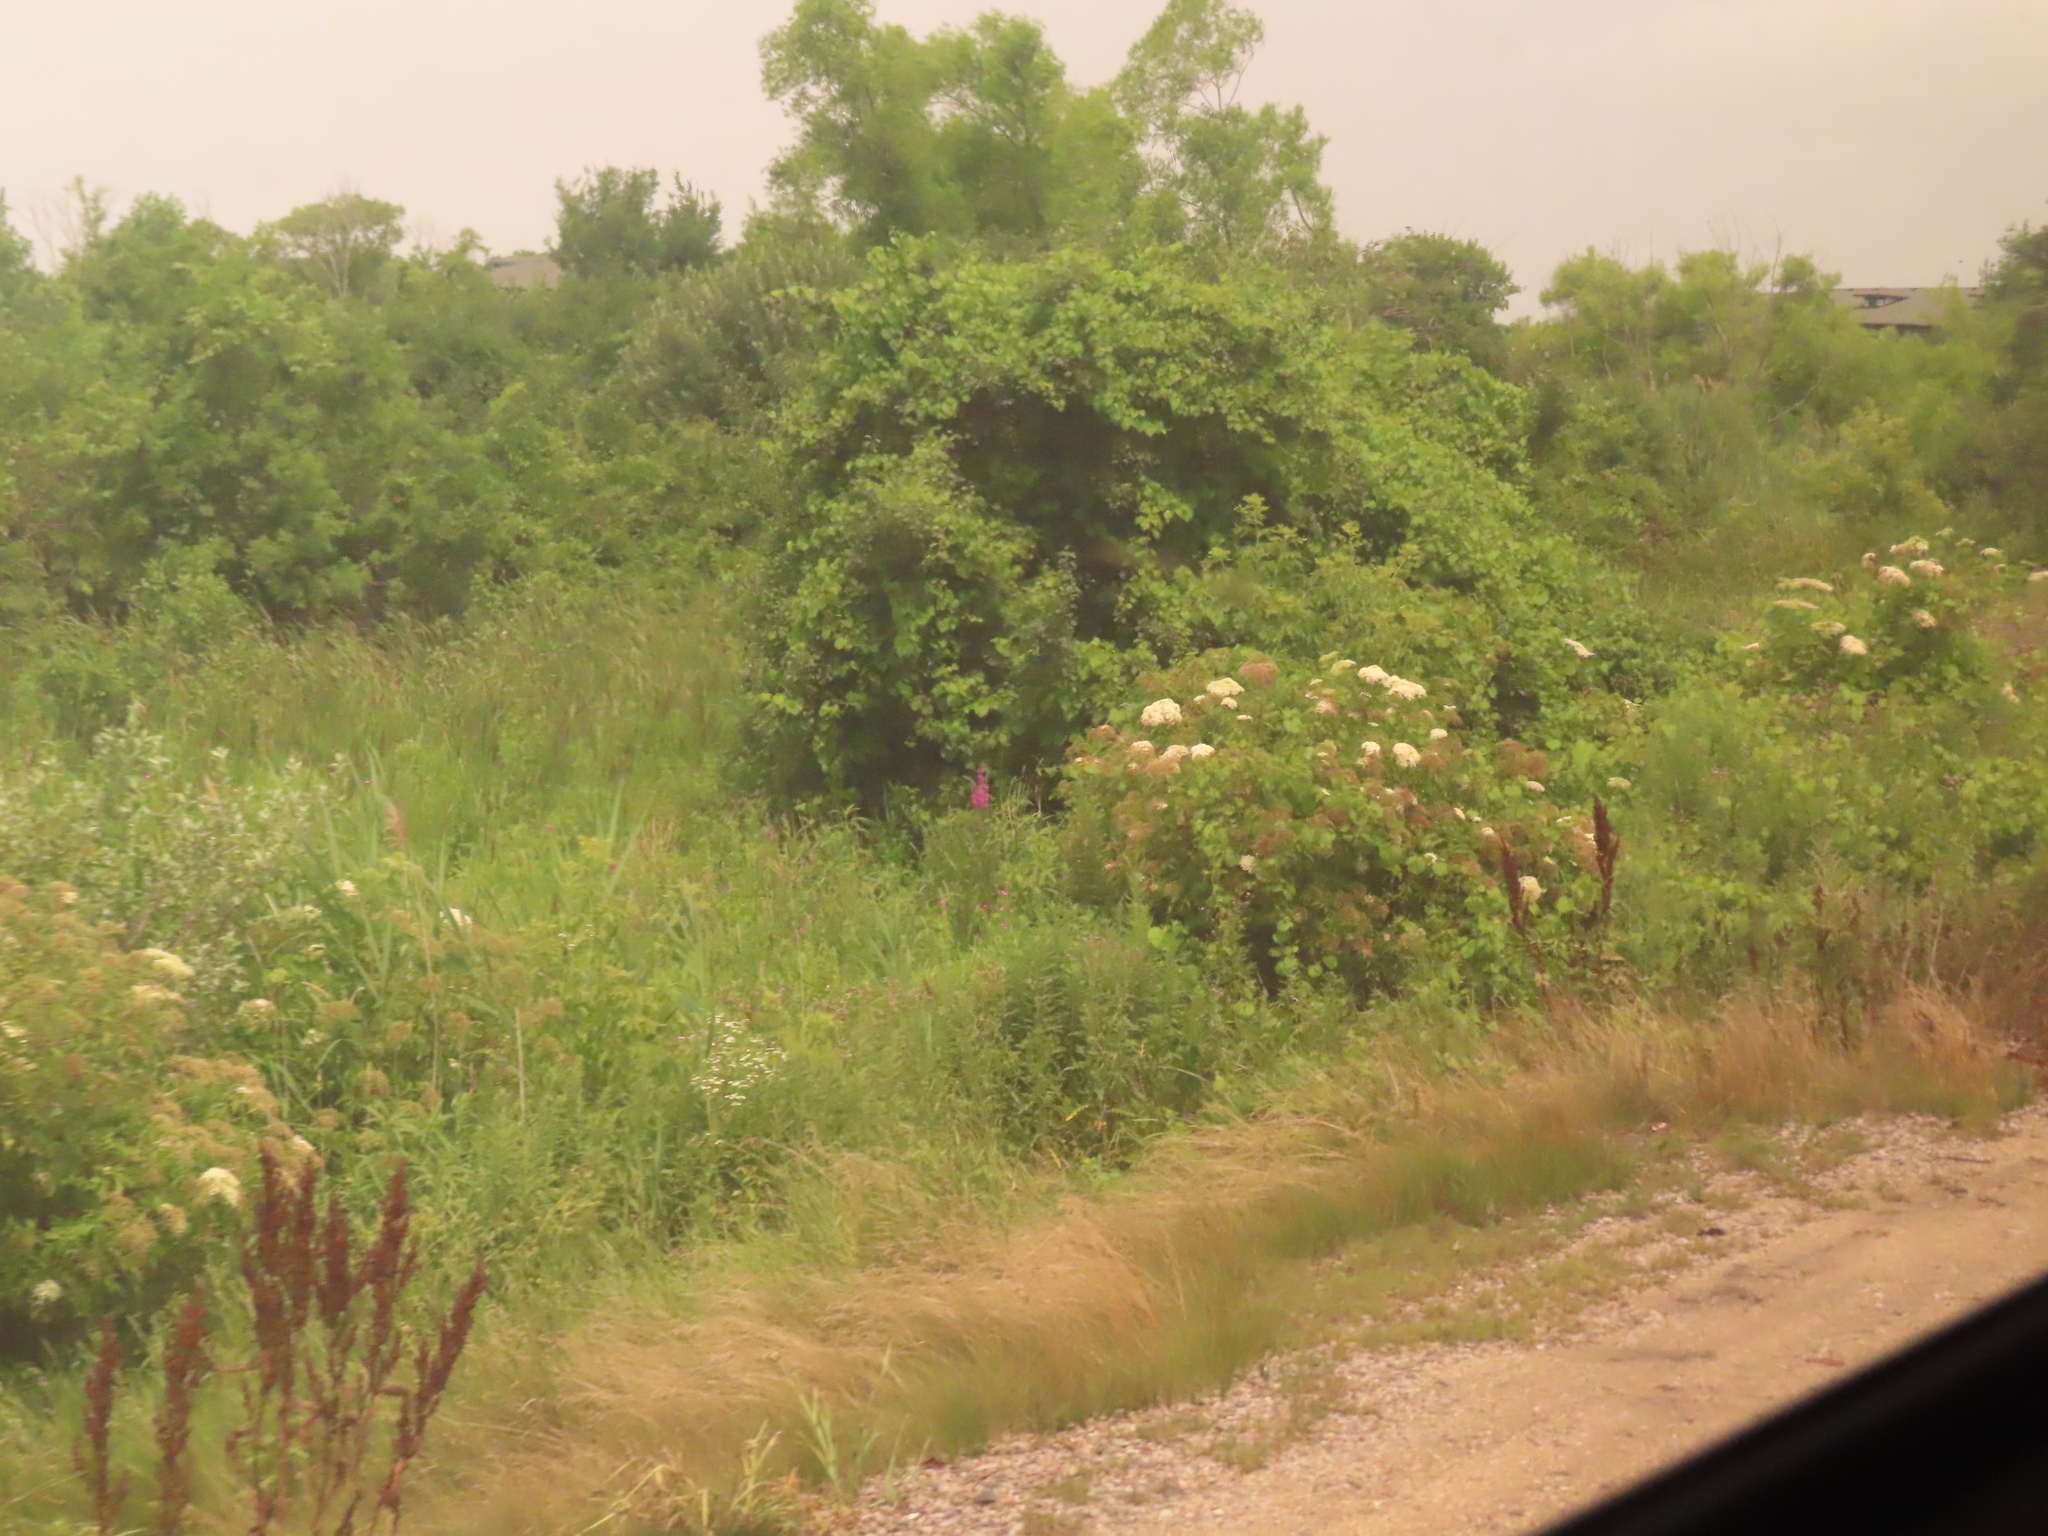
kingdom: Plantae
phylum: Tracheophyta
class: Magnoliopsida
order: Caryophyllales
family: Polygonaceae
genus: Rumex
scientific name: Rumex crispus
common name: Curled dock
